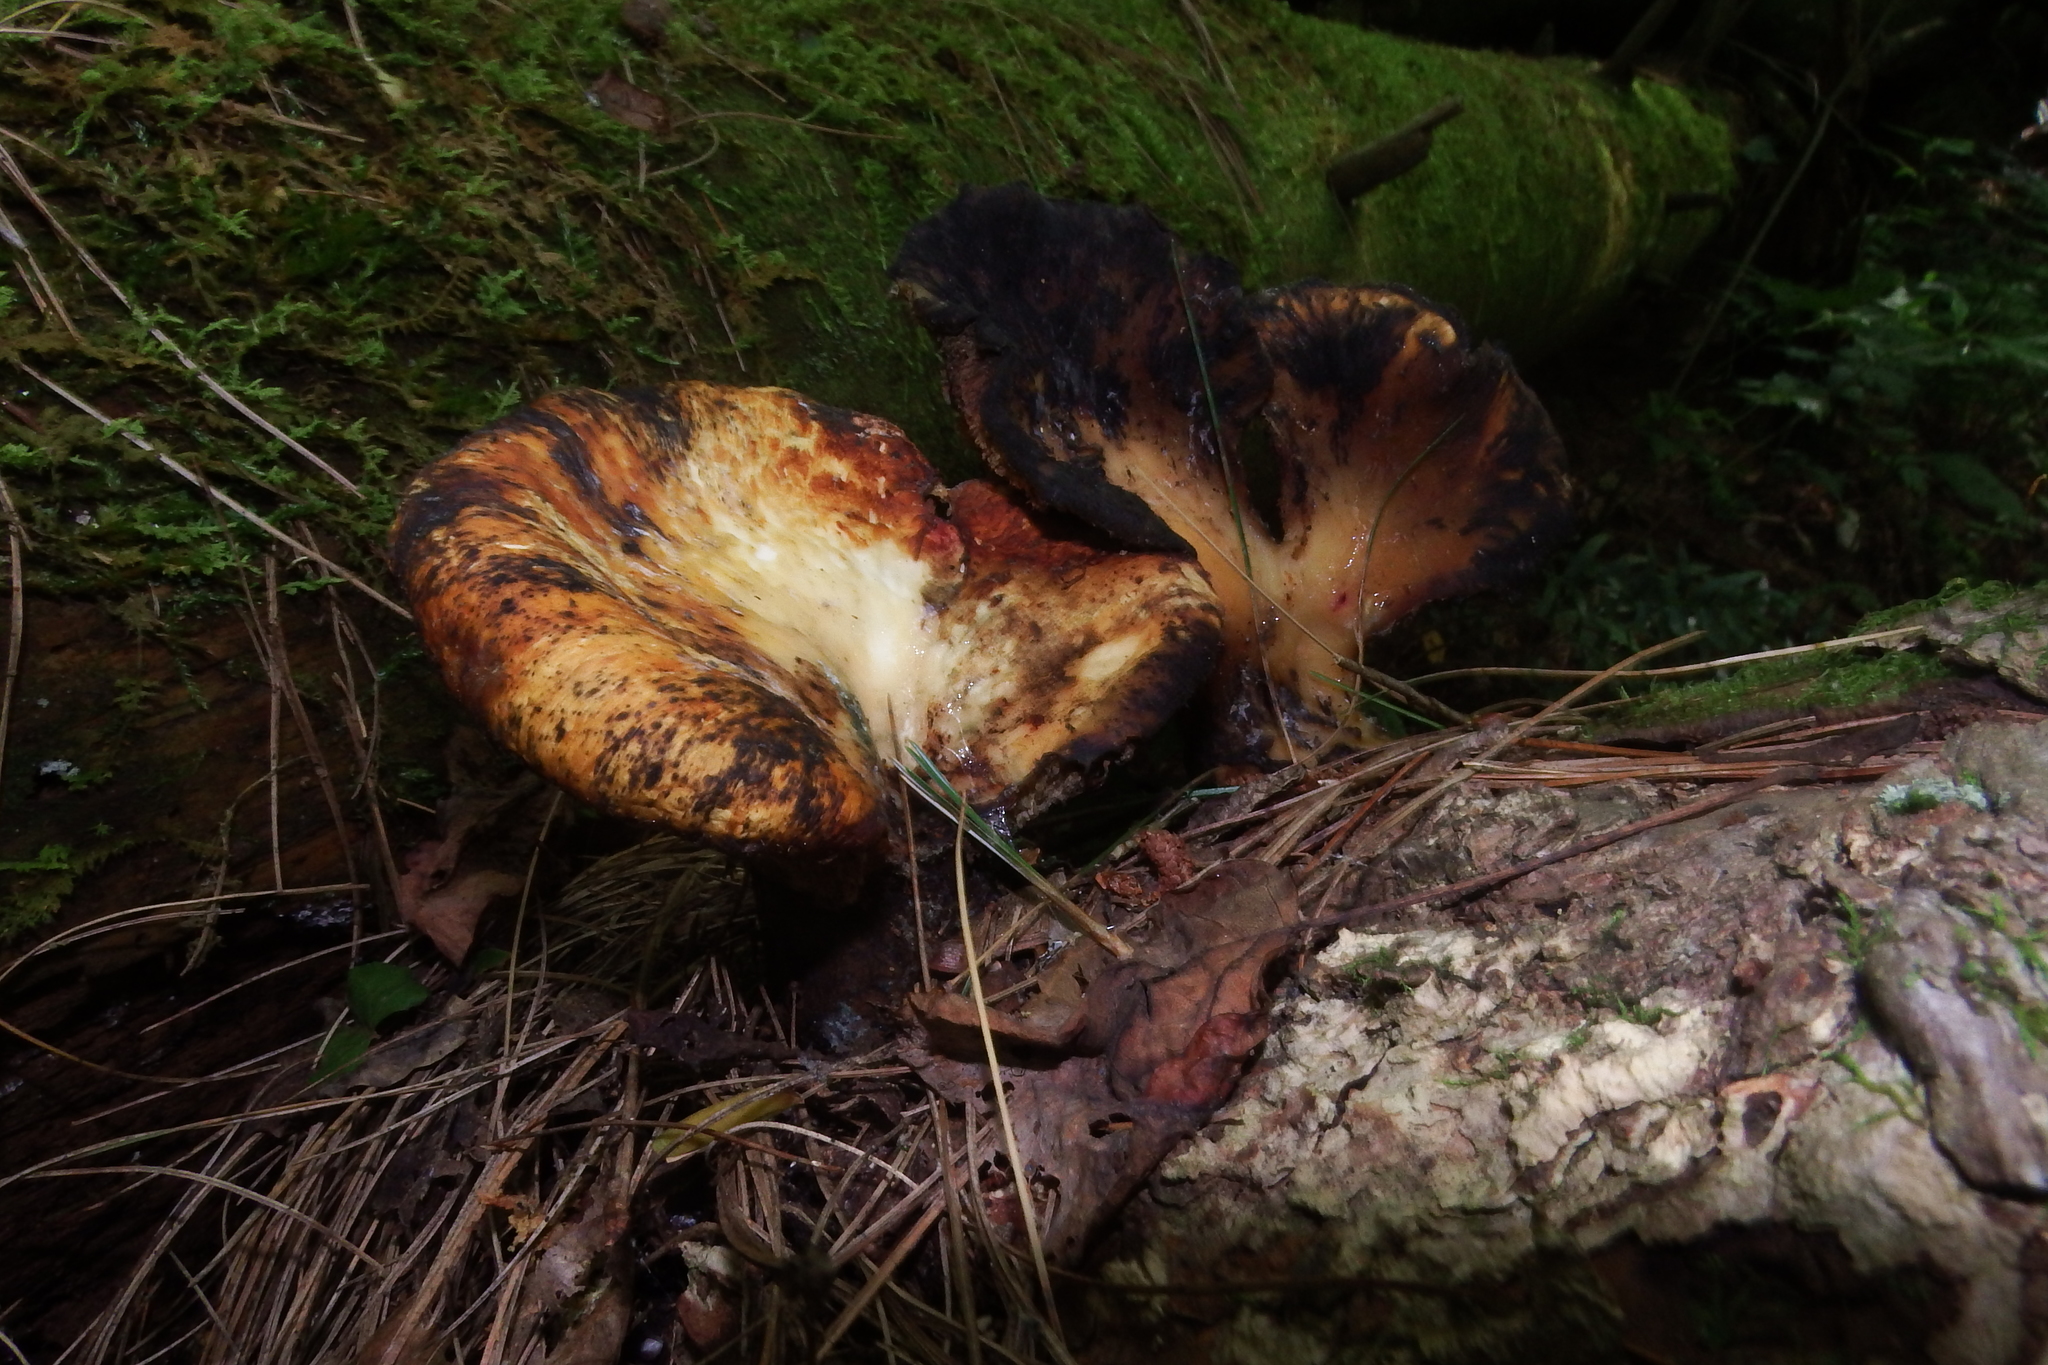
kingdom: Fungi
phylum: Basidiomycota
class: Agaricomycetes
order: Polyporales
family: Polyporaceae
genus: Cerioporus
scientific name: Cerioporus squamosus
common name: Dryad's saddle
